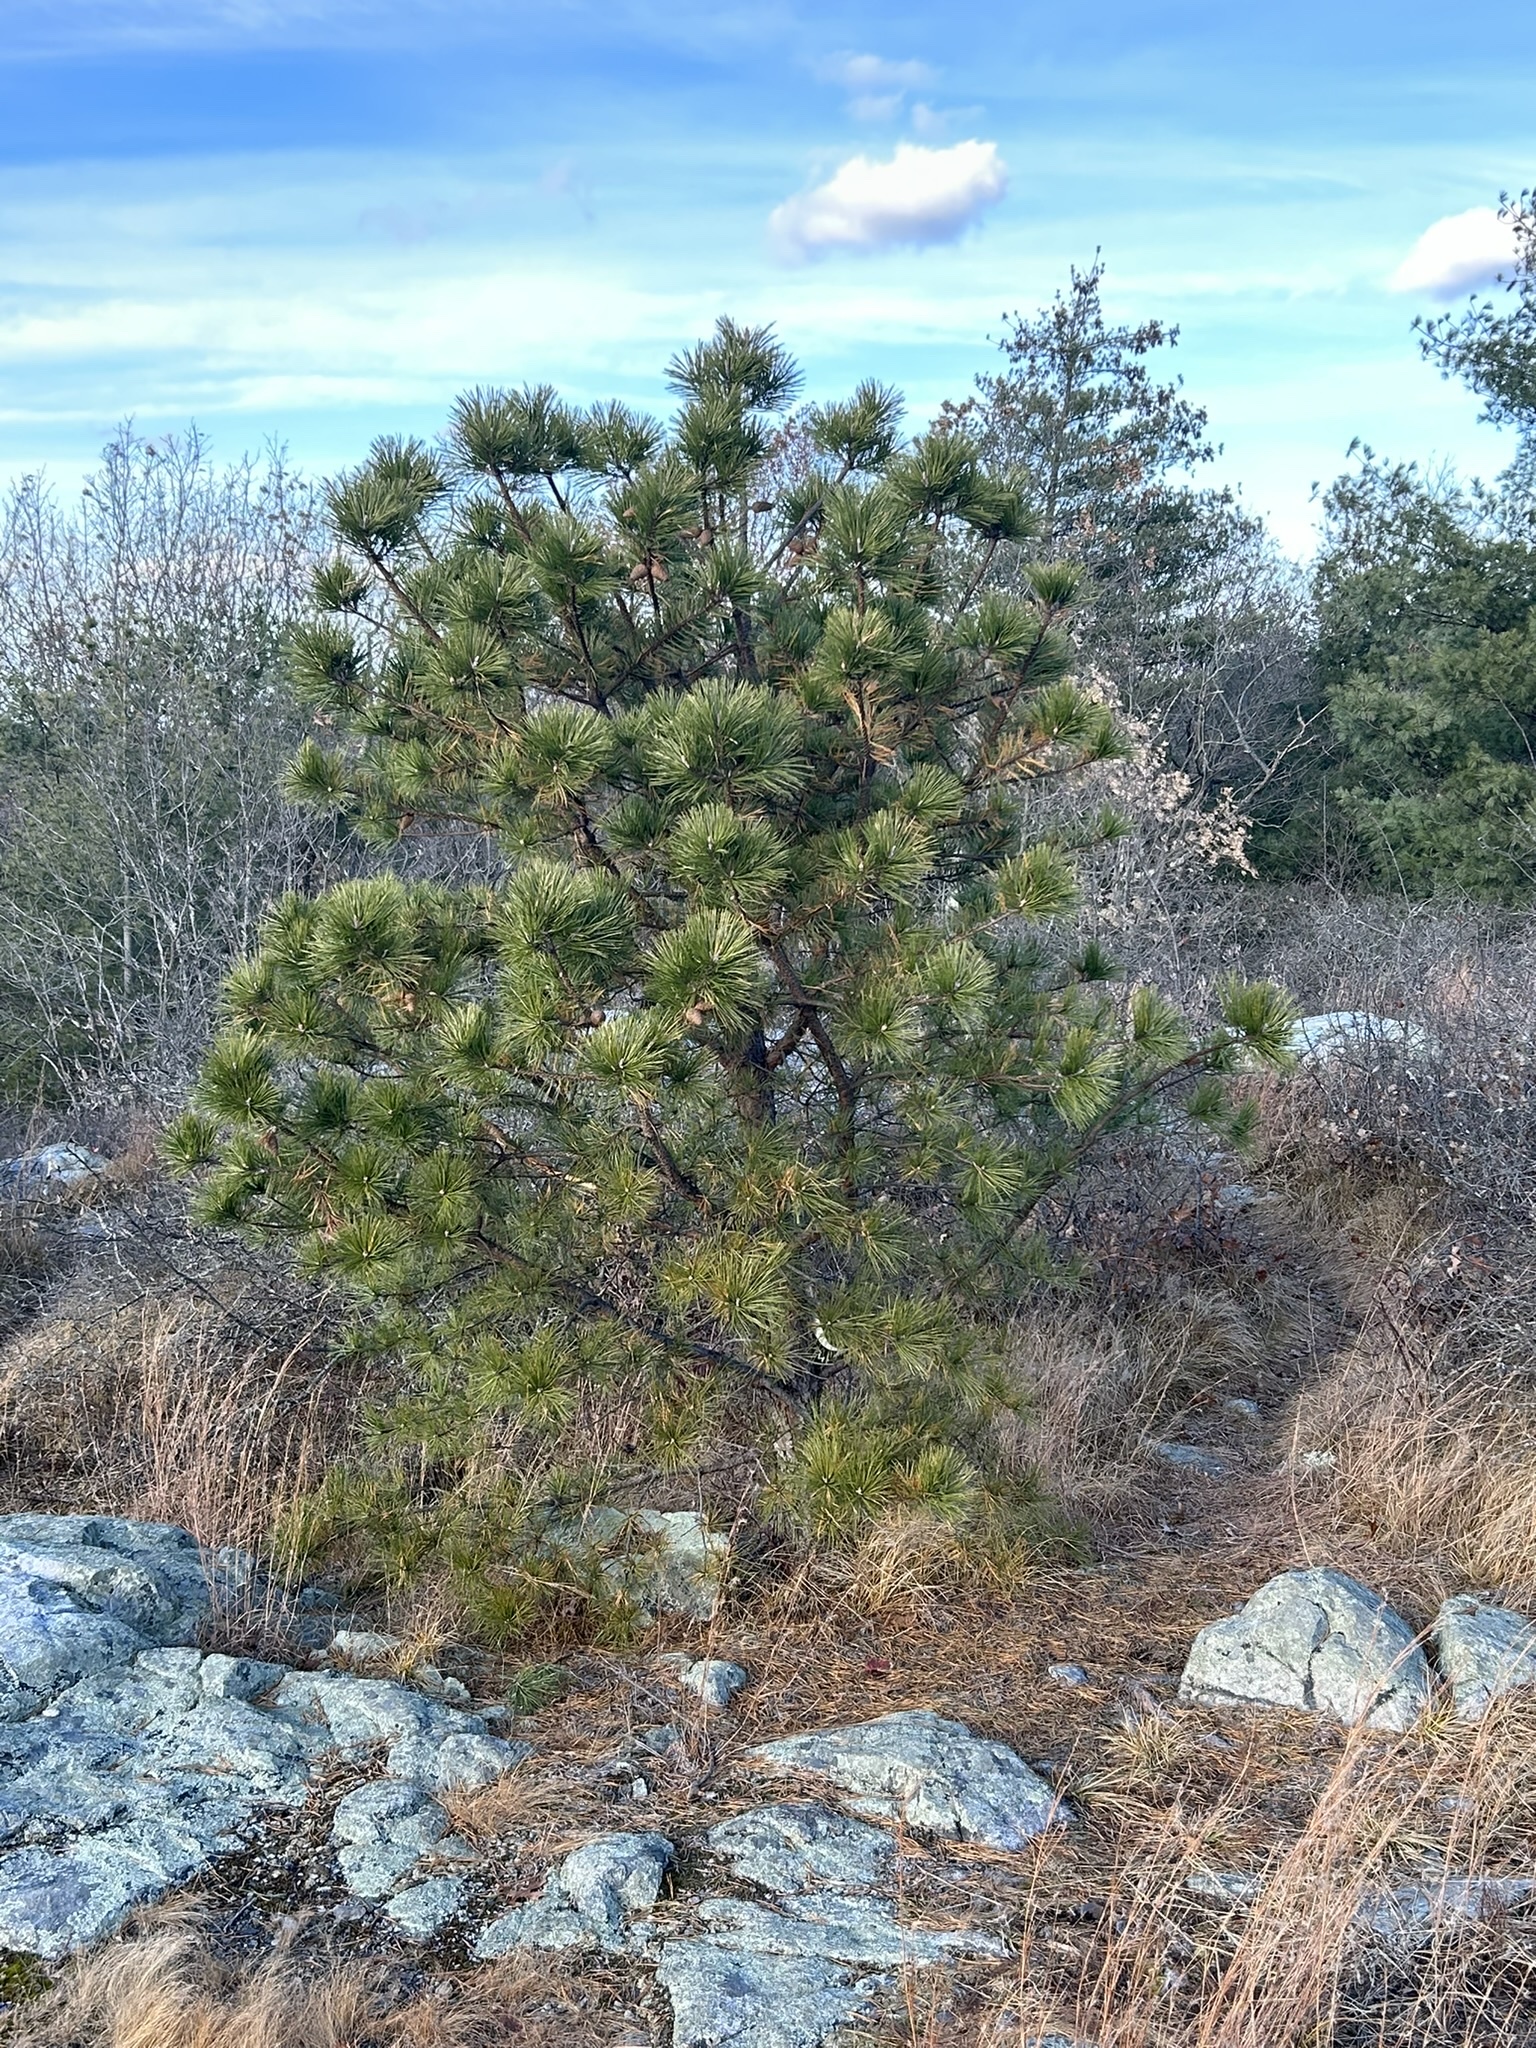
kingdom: Plantae
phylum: Tracheophyta
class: Pinopsida
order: Pinales
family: Pinaceae
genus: Pinus
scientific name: Pinus rigida
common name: Pitch pine
